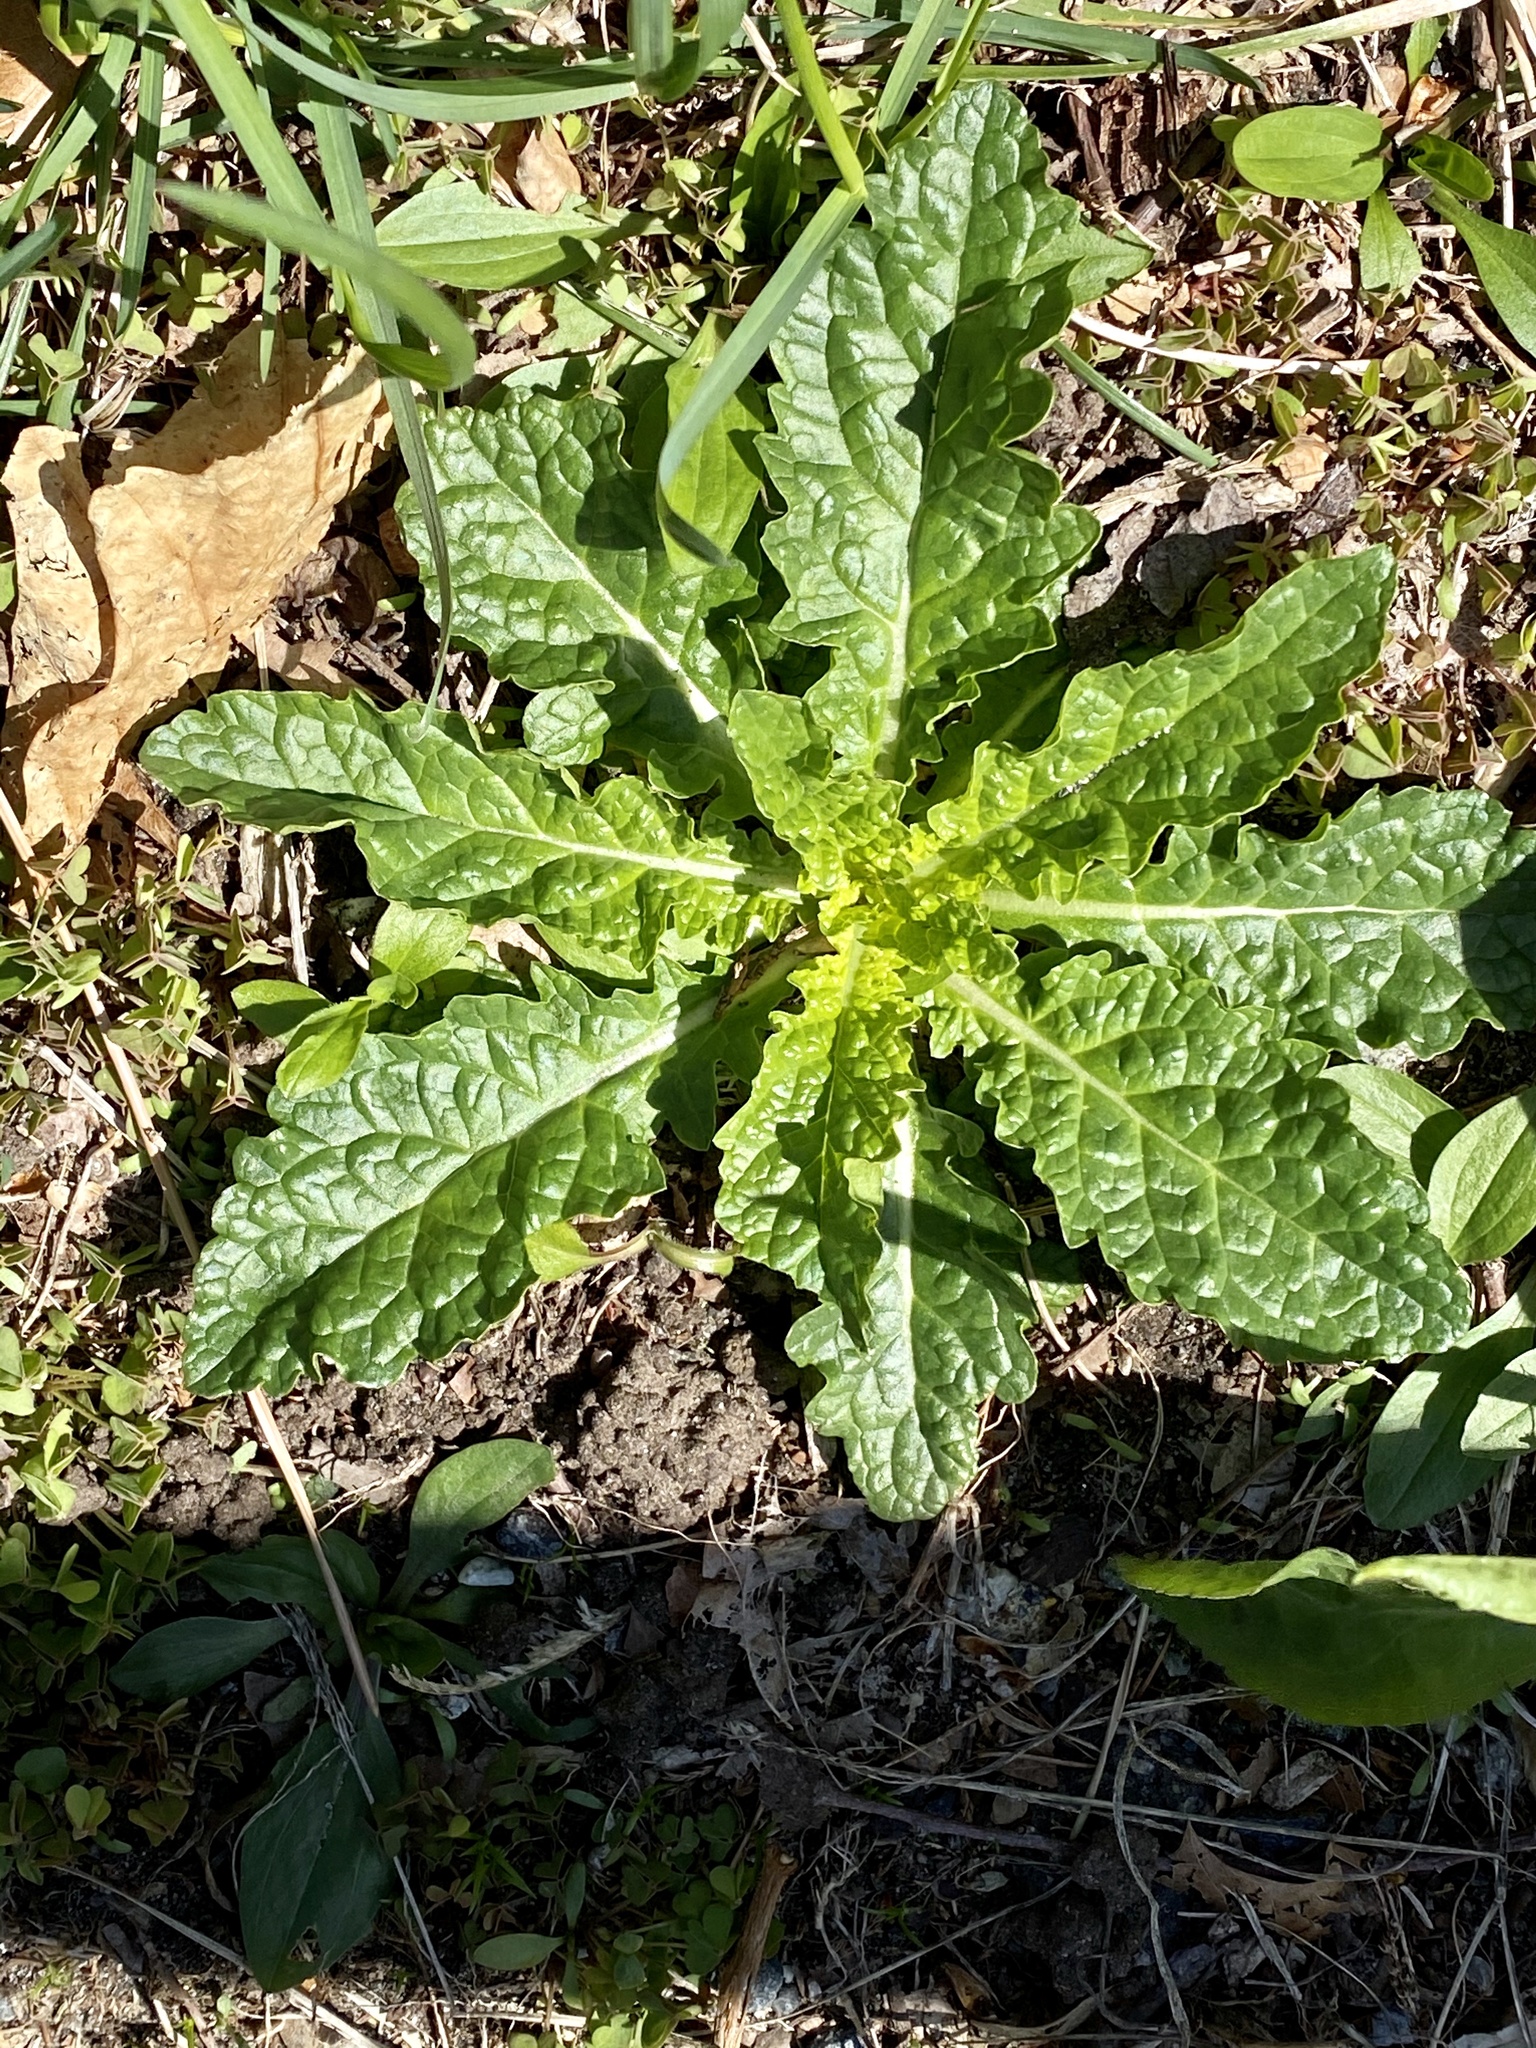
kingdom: Plantae
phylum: Tracheophyta
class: Magnoliopsida
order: Lamiales
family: Scrophulariaceae
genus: Verbascum
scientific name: Verbascum blattaria
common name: Moth mullein
